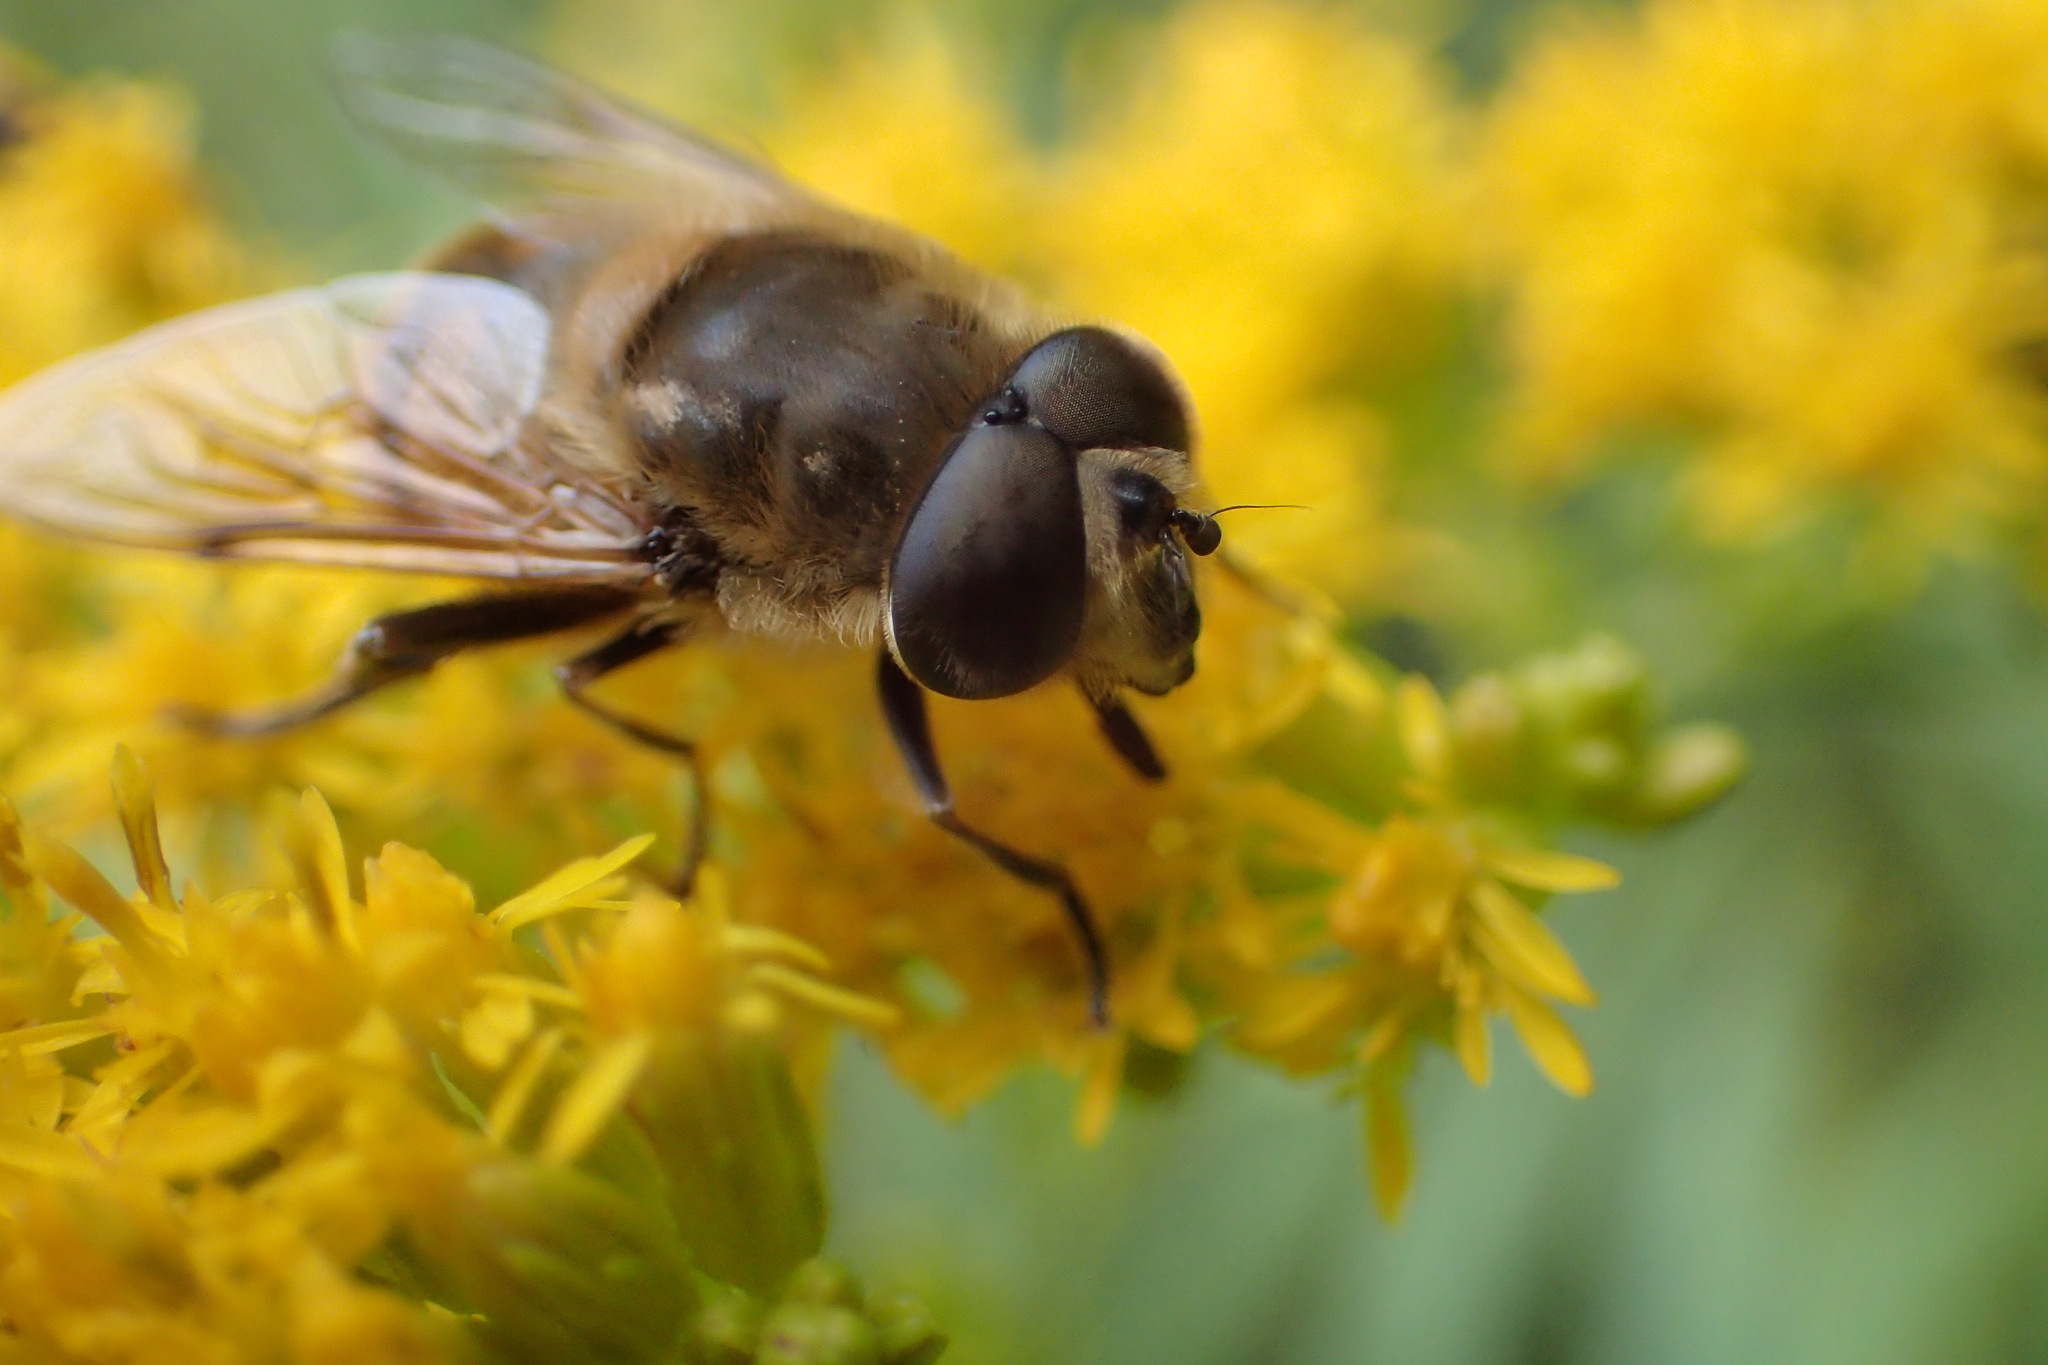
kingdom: Animalia
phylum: Arthropoda
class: Insecta
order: Diptera
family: Syrphidae
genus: Eristalis
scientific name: Eristalis tenax
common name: Drone fly
